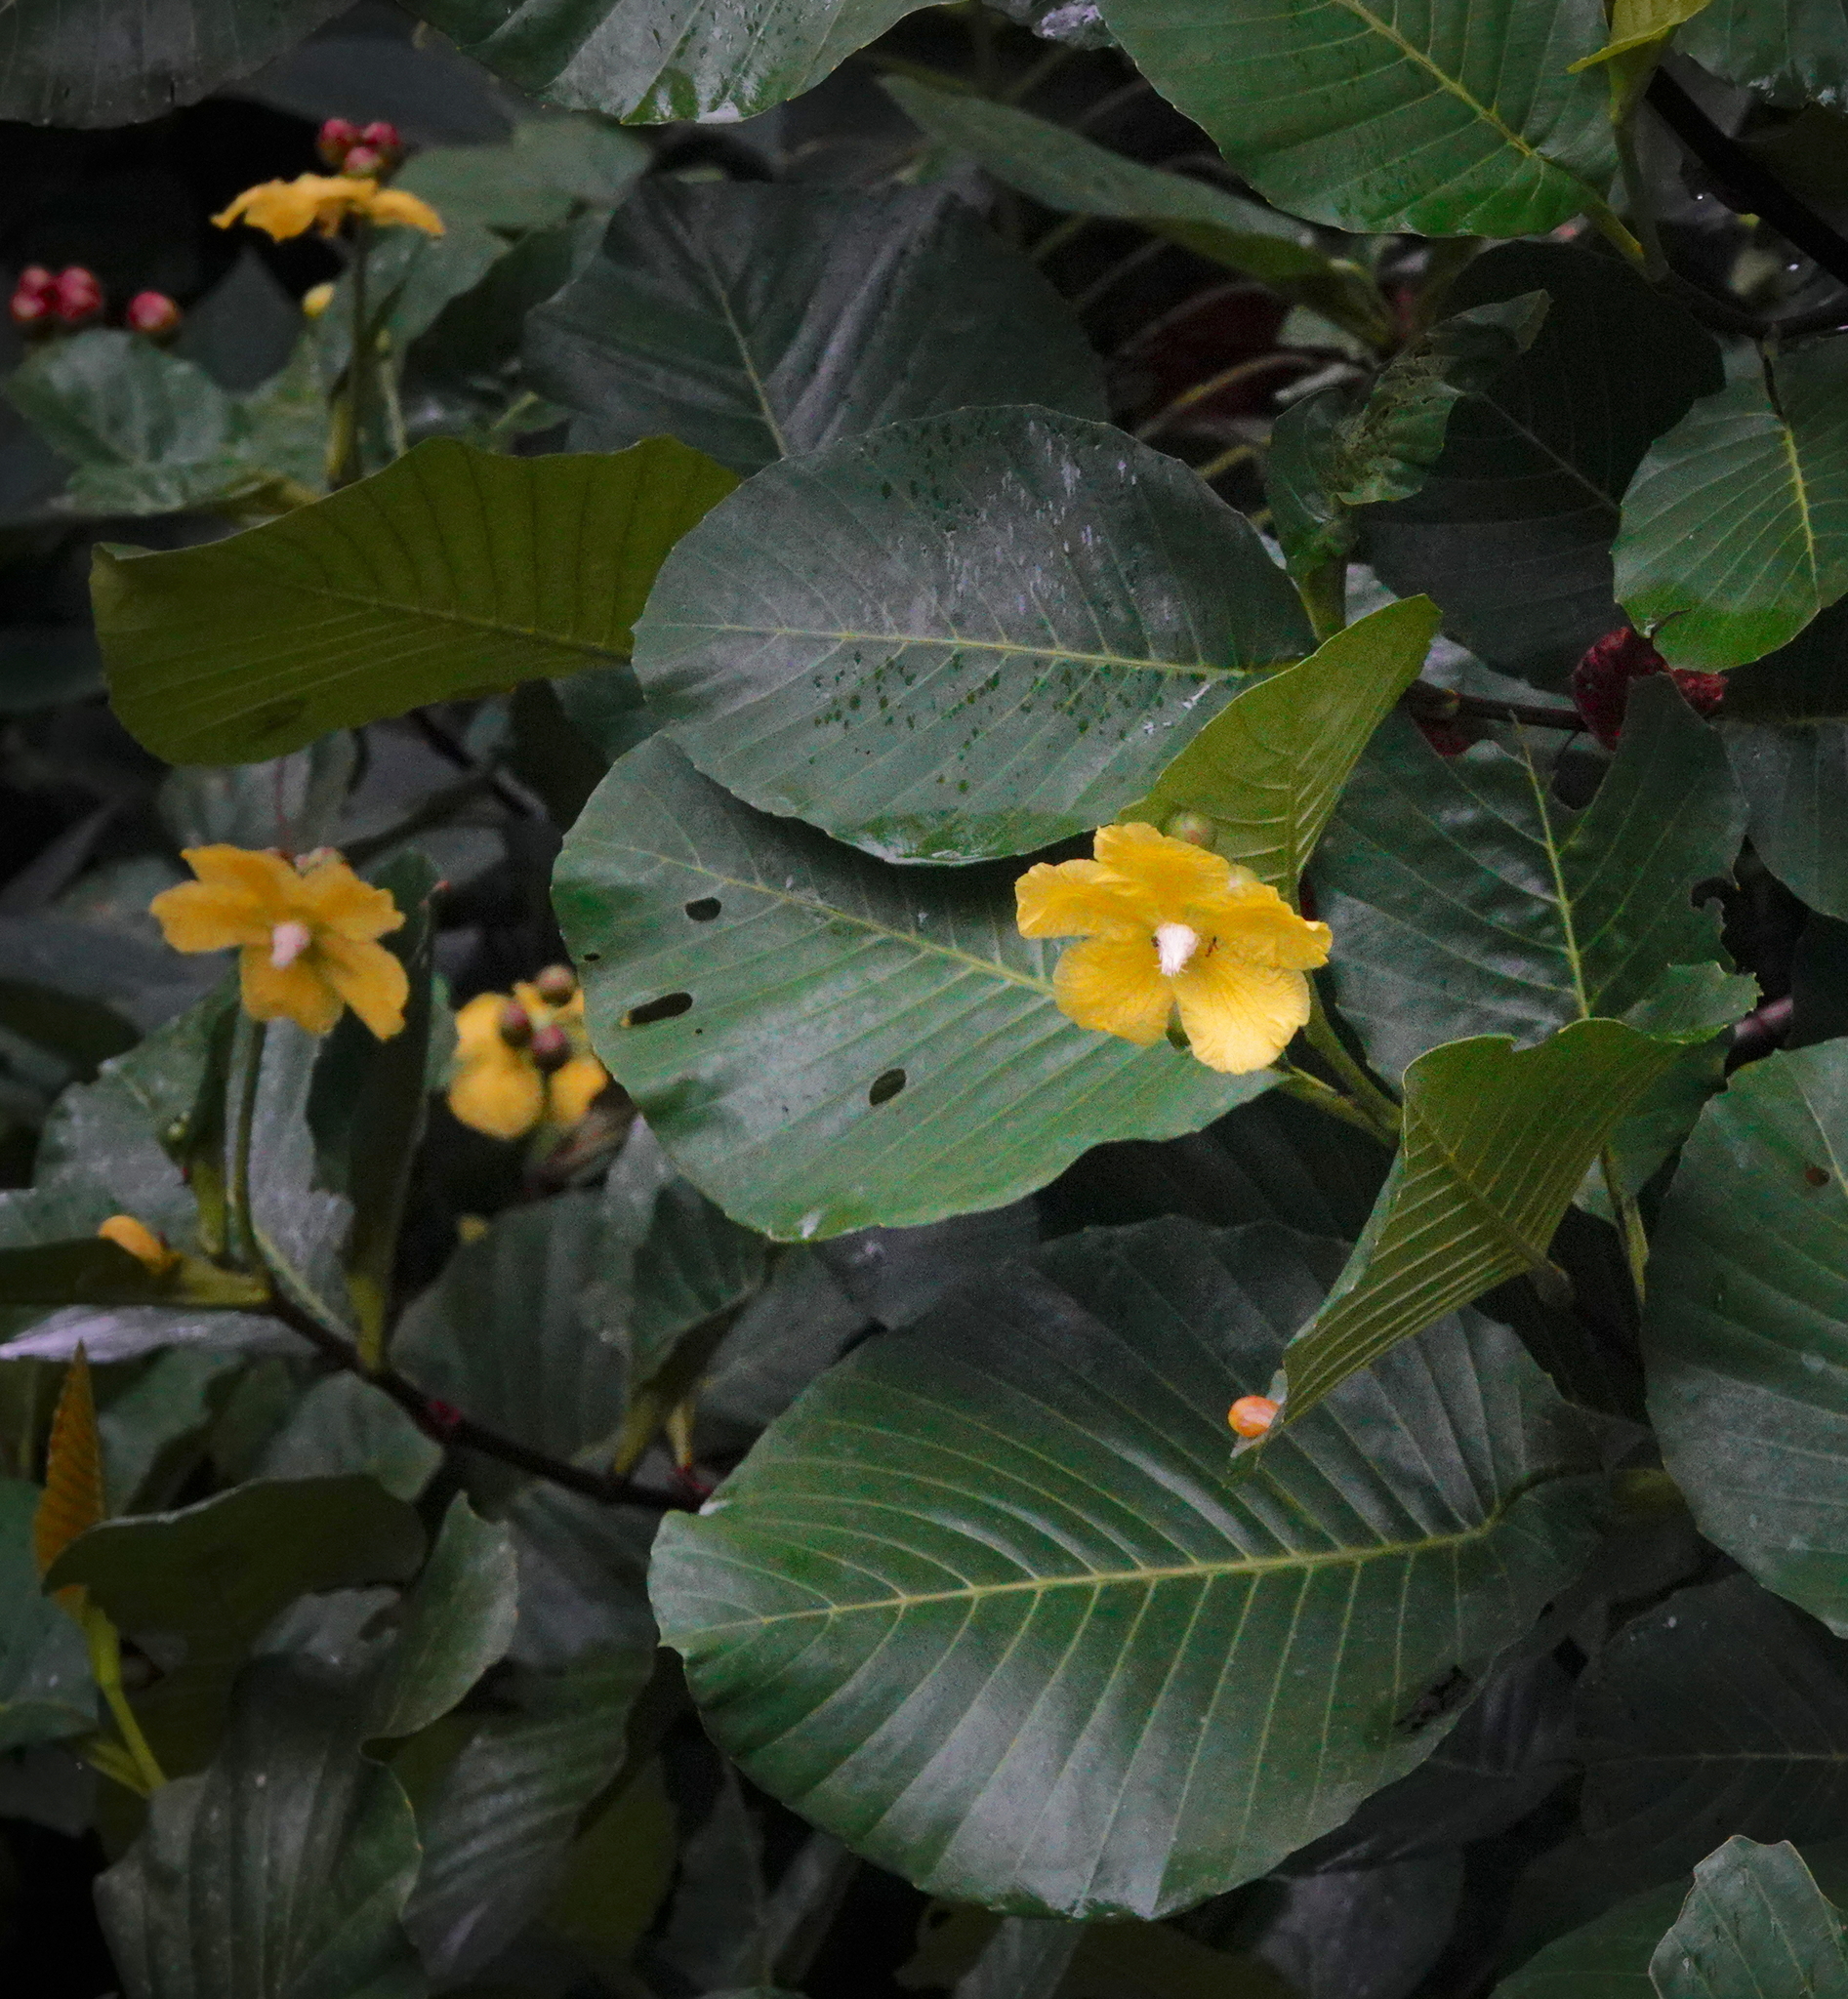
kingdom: Plantae
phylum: Tracheophyta
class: Magnoliopsida
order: Dilleniales
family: Dilleniaceae
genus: Dillenia
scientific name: Dillenia suffruticosa
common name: Shrubby dillenia
